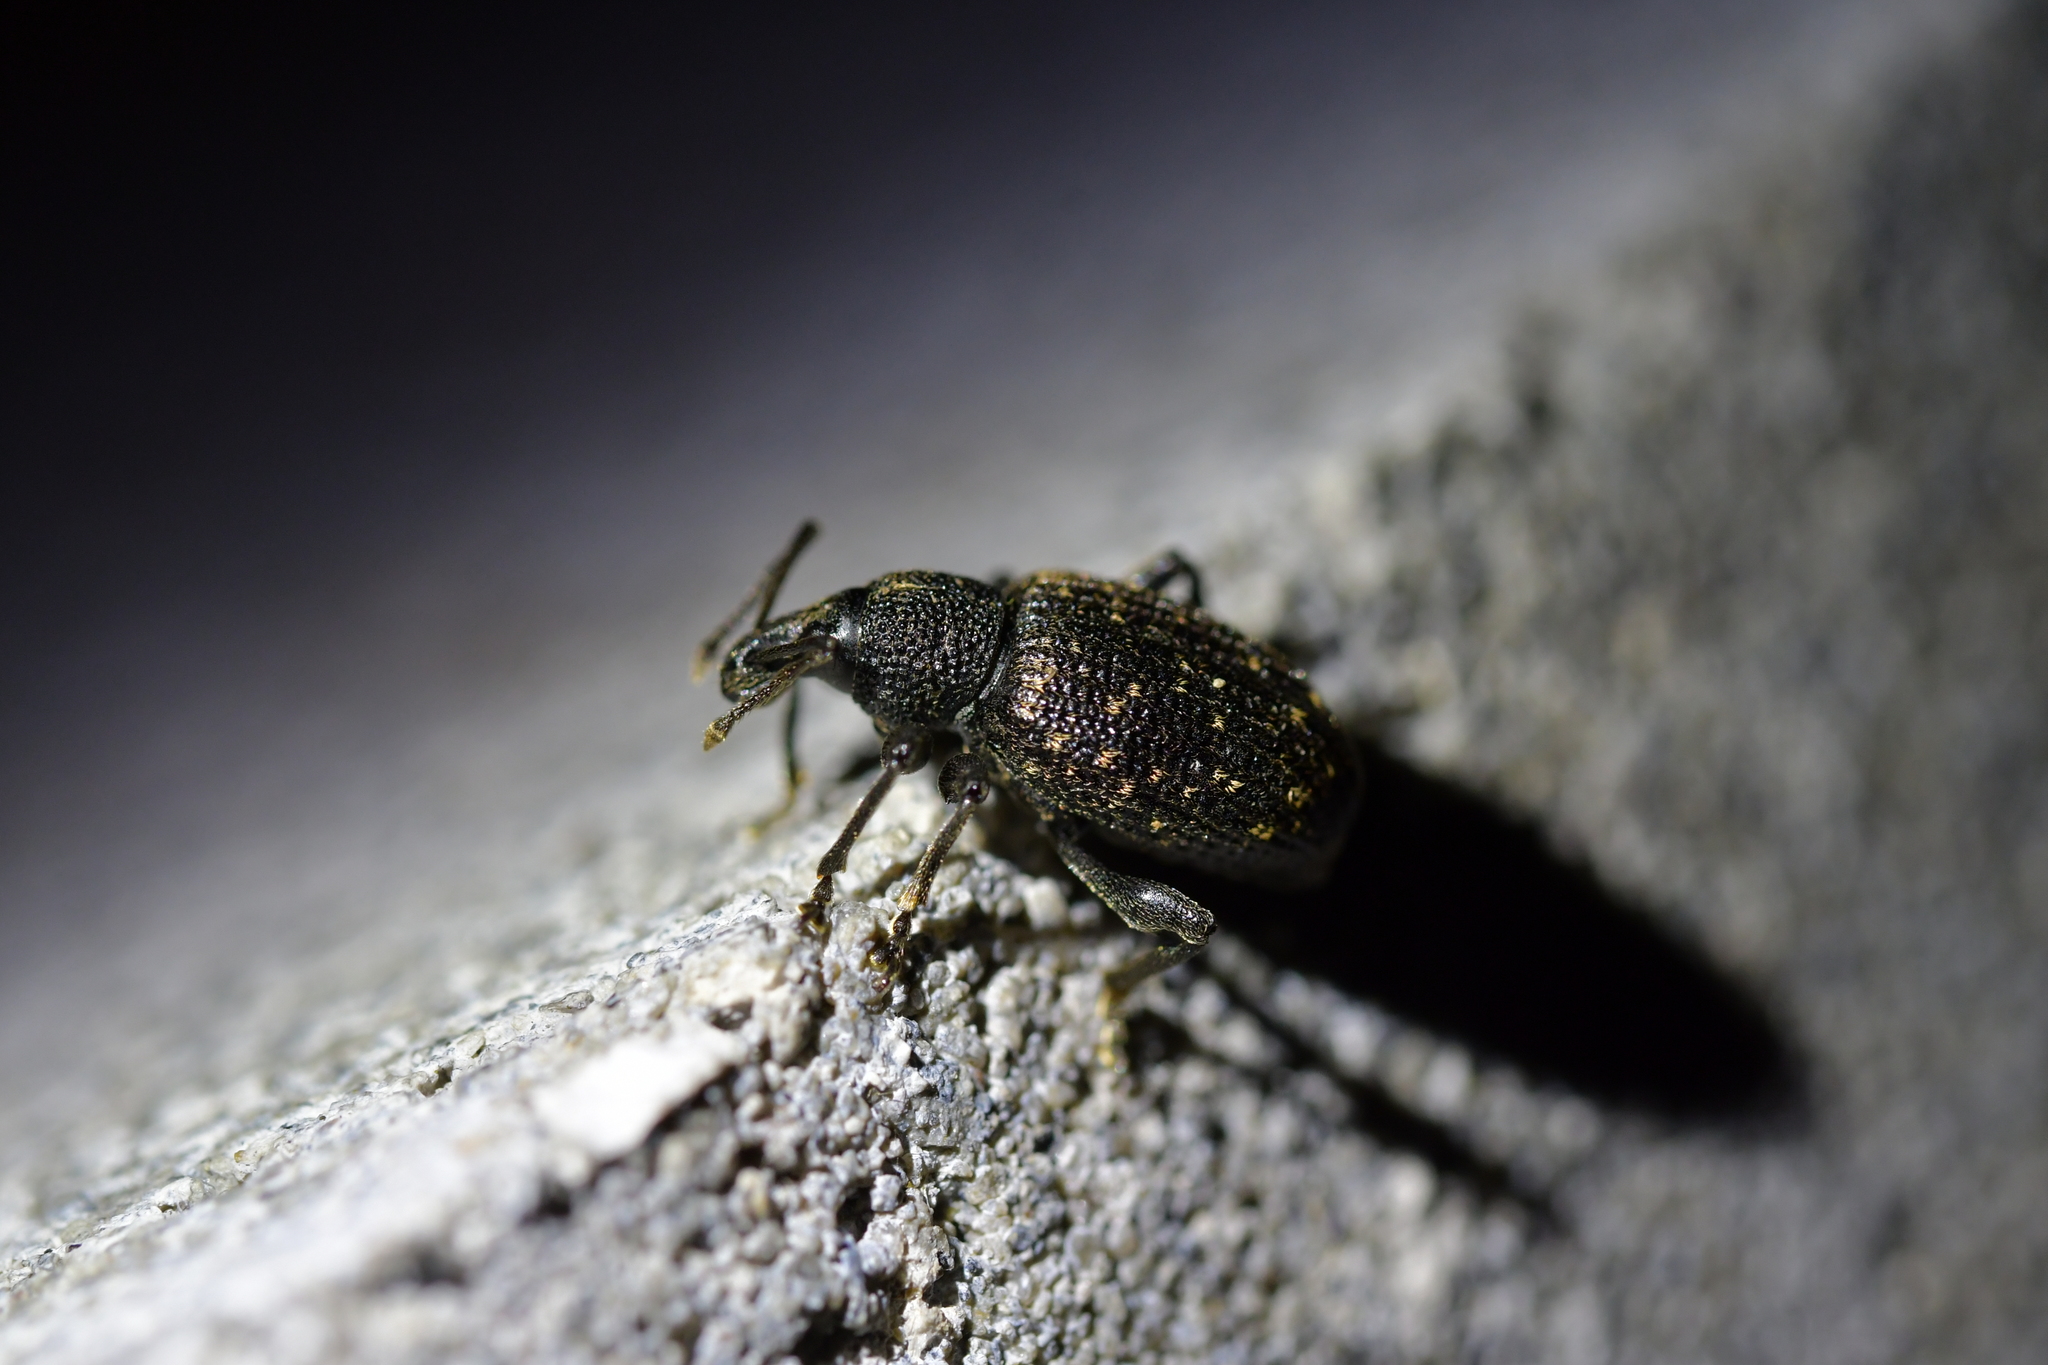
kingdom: Animalia
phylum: Arthropoda
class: Insecta
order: Coleoptera
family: Curculionidae
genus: Otiorhynchus
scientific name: Otiorhynchus sulcatus
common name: Black vine weevil
